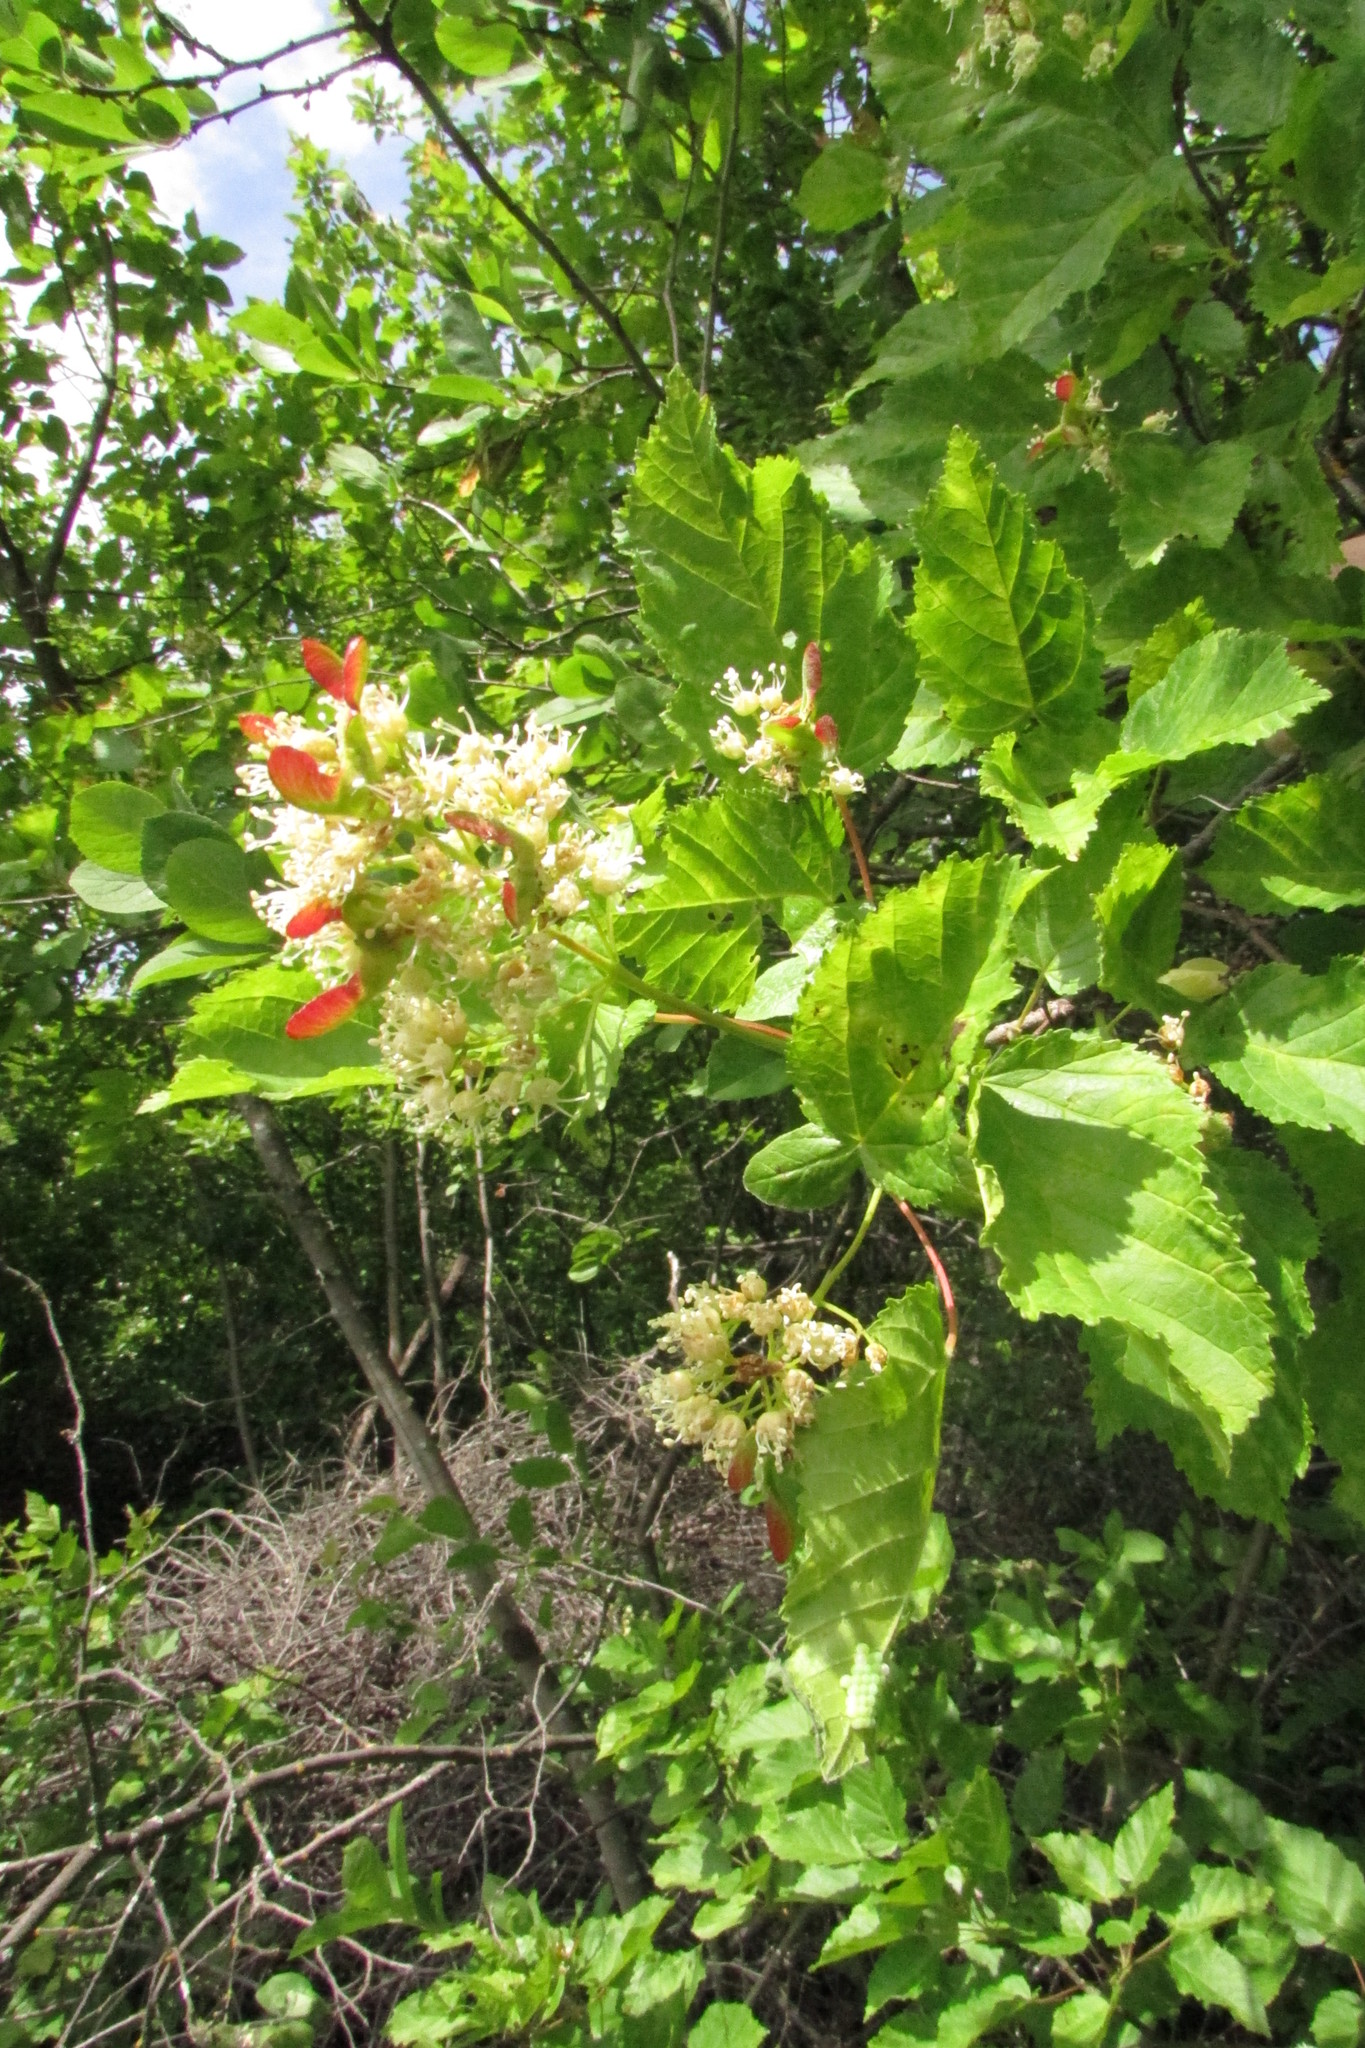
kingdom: Plantae
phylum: Tracheophyta
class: Magnoliopsida
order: Sapindales
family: Sapindaceae
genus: Acer
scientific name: Acer tataricum
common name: Tartar maple
